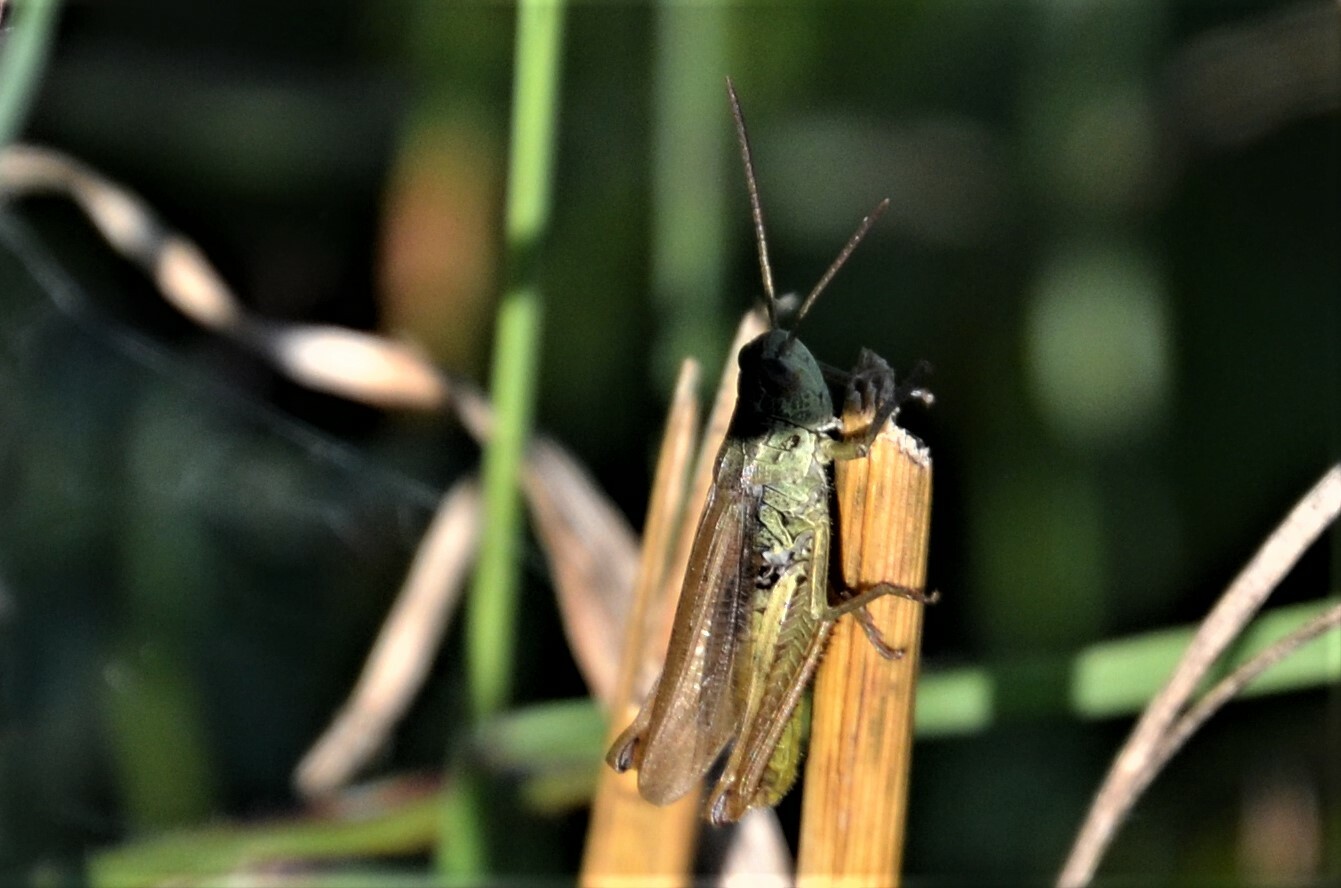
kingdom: Animalia
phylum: Arthropoda
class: Insecta
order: Orthoptera
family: Acrididae
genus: Chorthippus
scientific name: Chorthippus apricarius
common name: Upland field grasshopper
